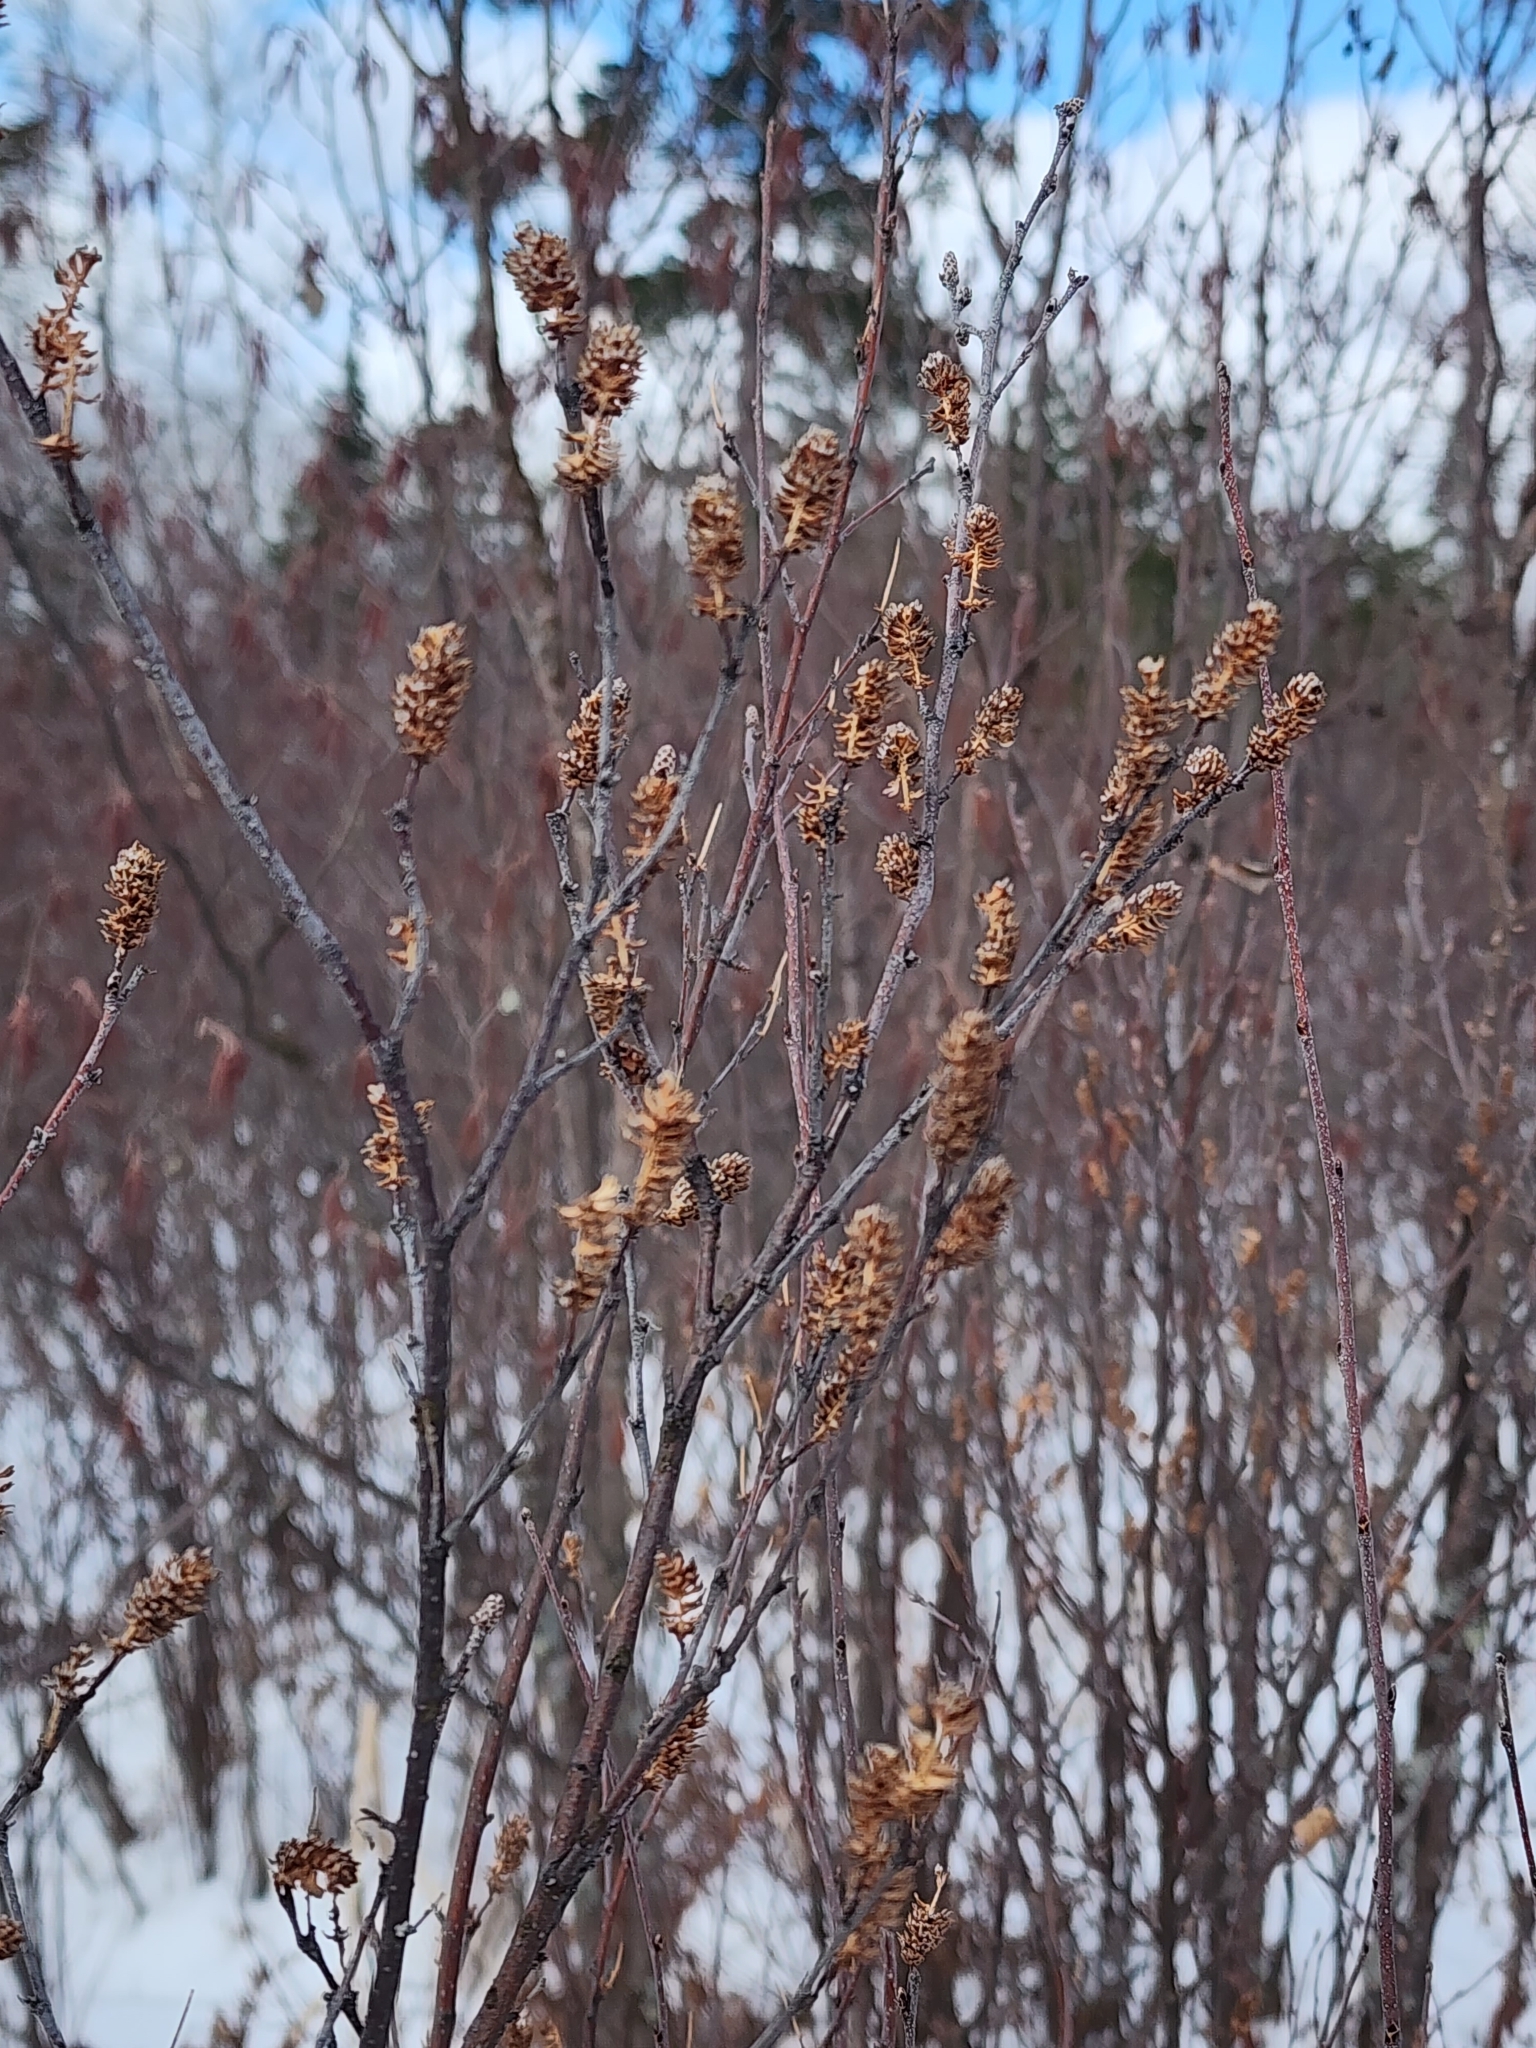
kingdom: Plantae
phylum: Tracheophyta
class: Magnoliopsida
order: Fagales
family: Betulaceae
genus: Betula
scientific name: Betula pumila
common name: Bog birch
